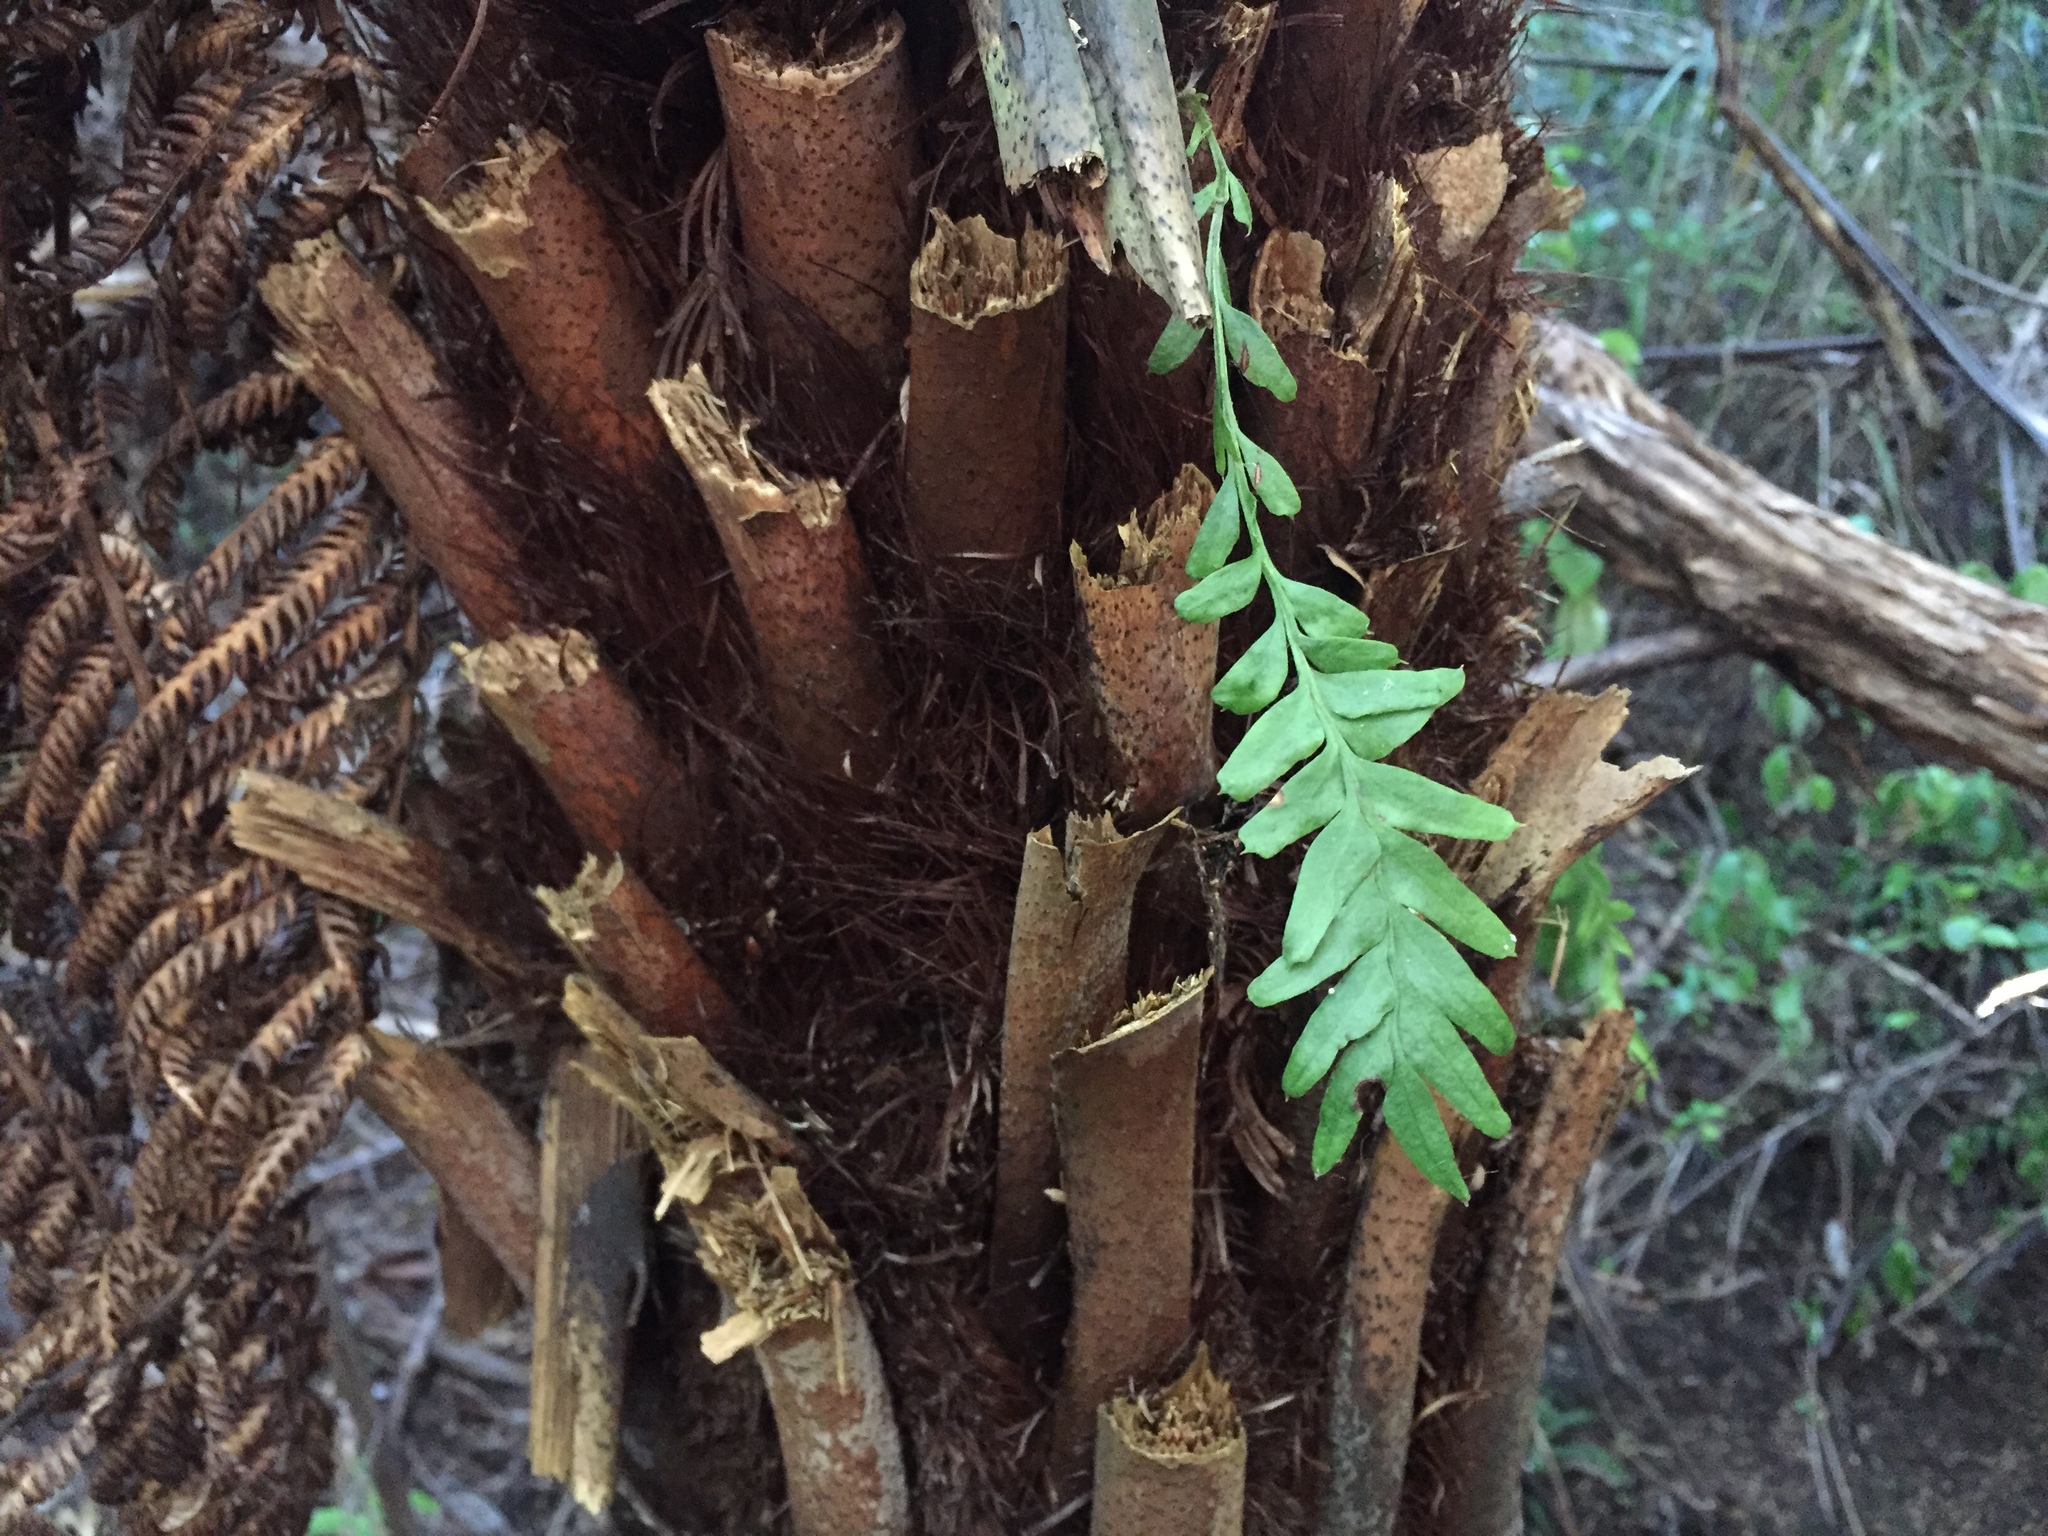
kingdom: Plantae
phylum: Tracheophyta
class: Polypodiopsida
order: Psilotales
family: Psilotaceae
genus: Tmesipteris
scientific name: Tmesipteris elongata
